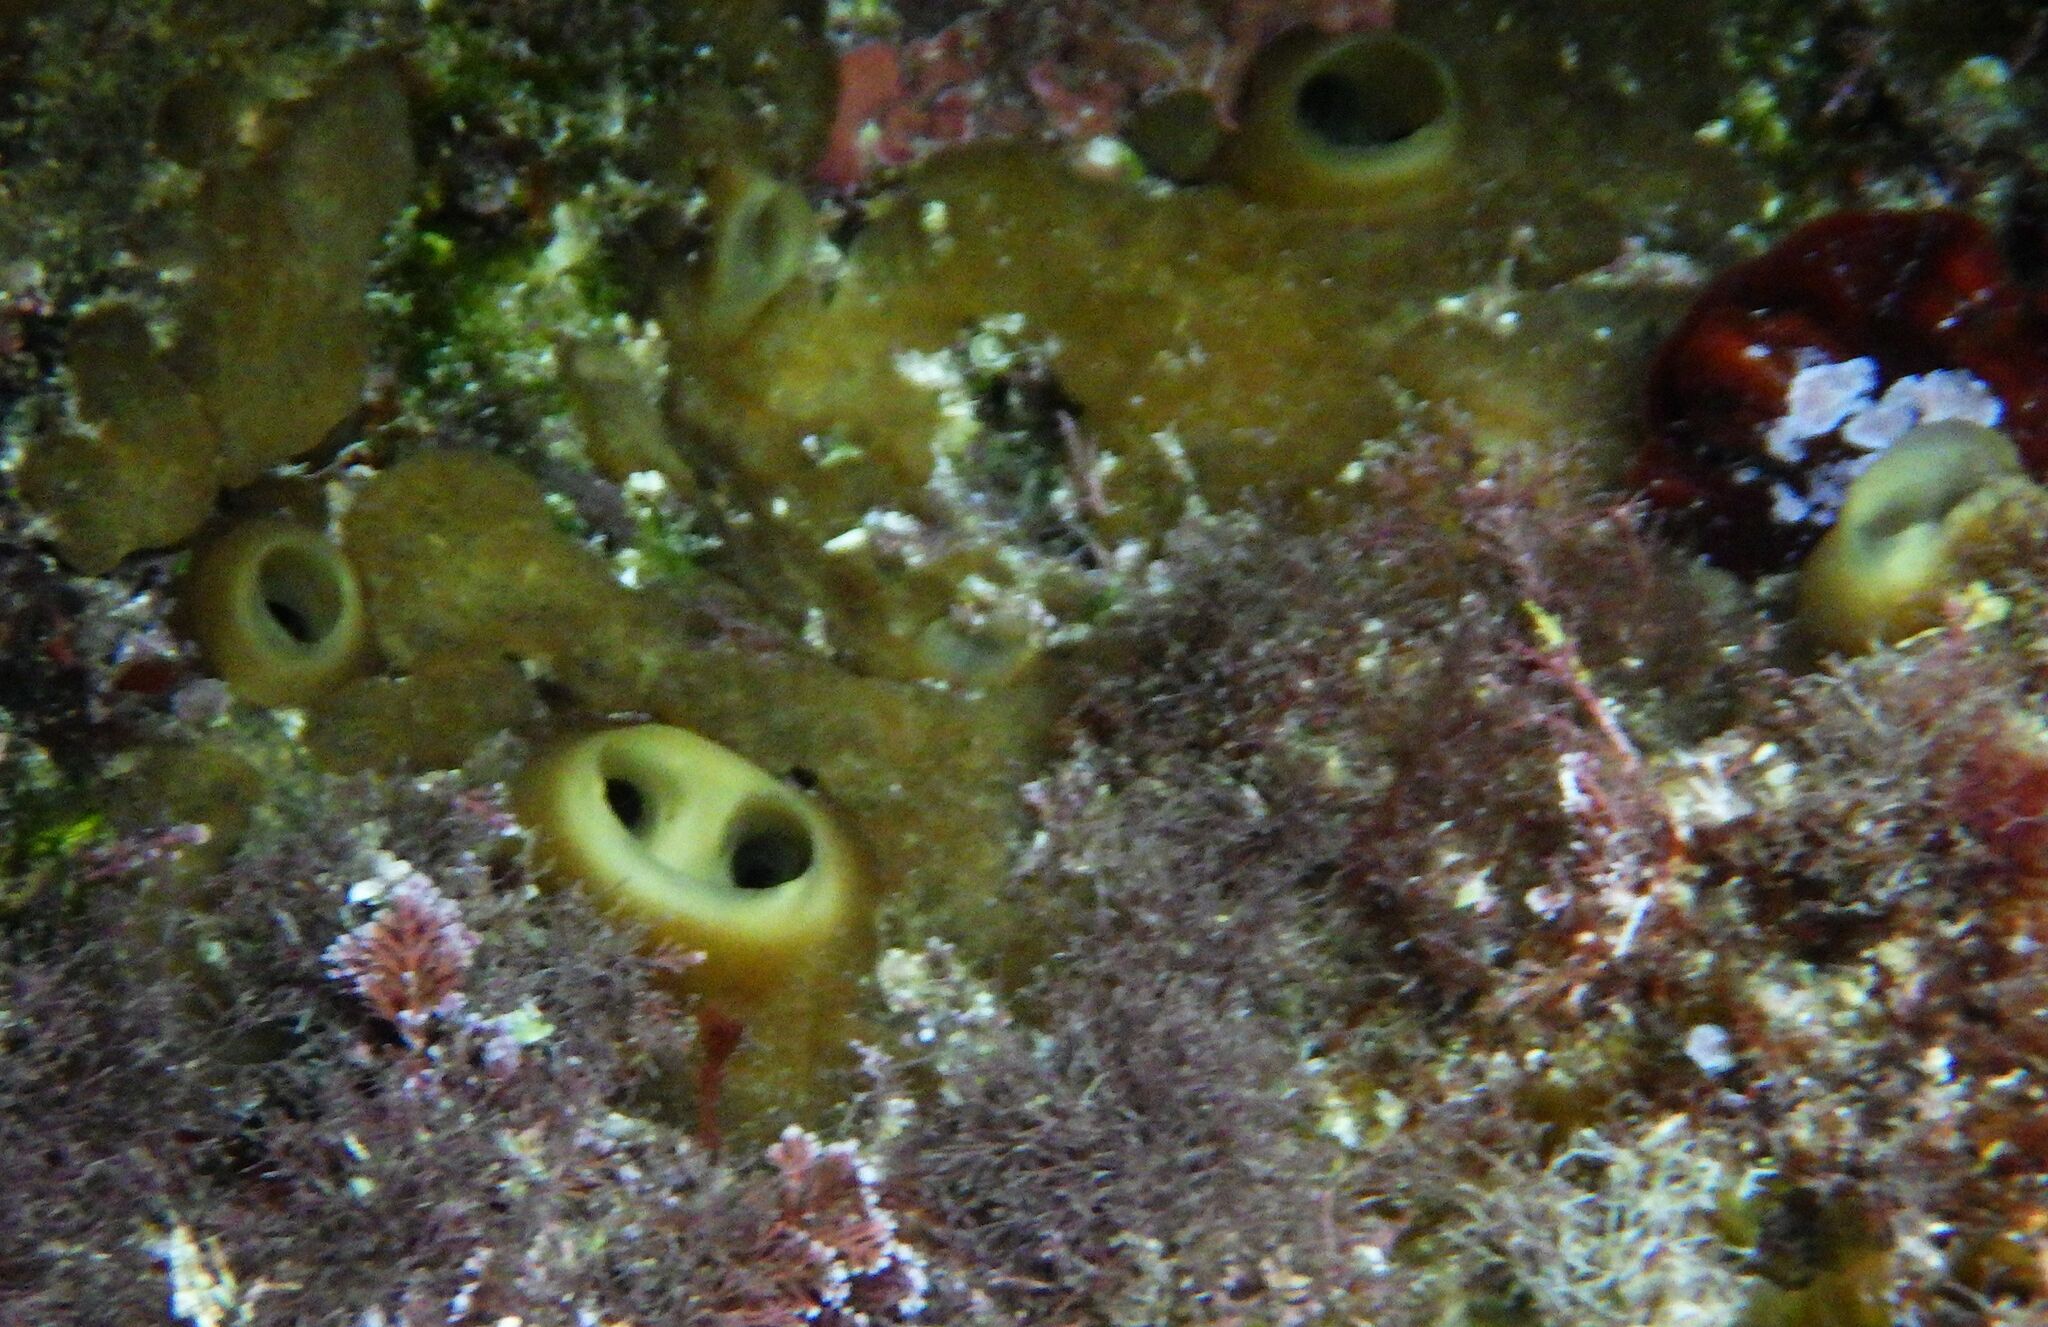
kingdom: Animalia
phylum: Porifera
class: Demospongiae
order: Clionaida
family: Clionaidae
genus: Cliona
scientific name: Cliona viridis
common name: Green boring sponge
